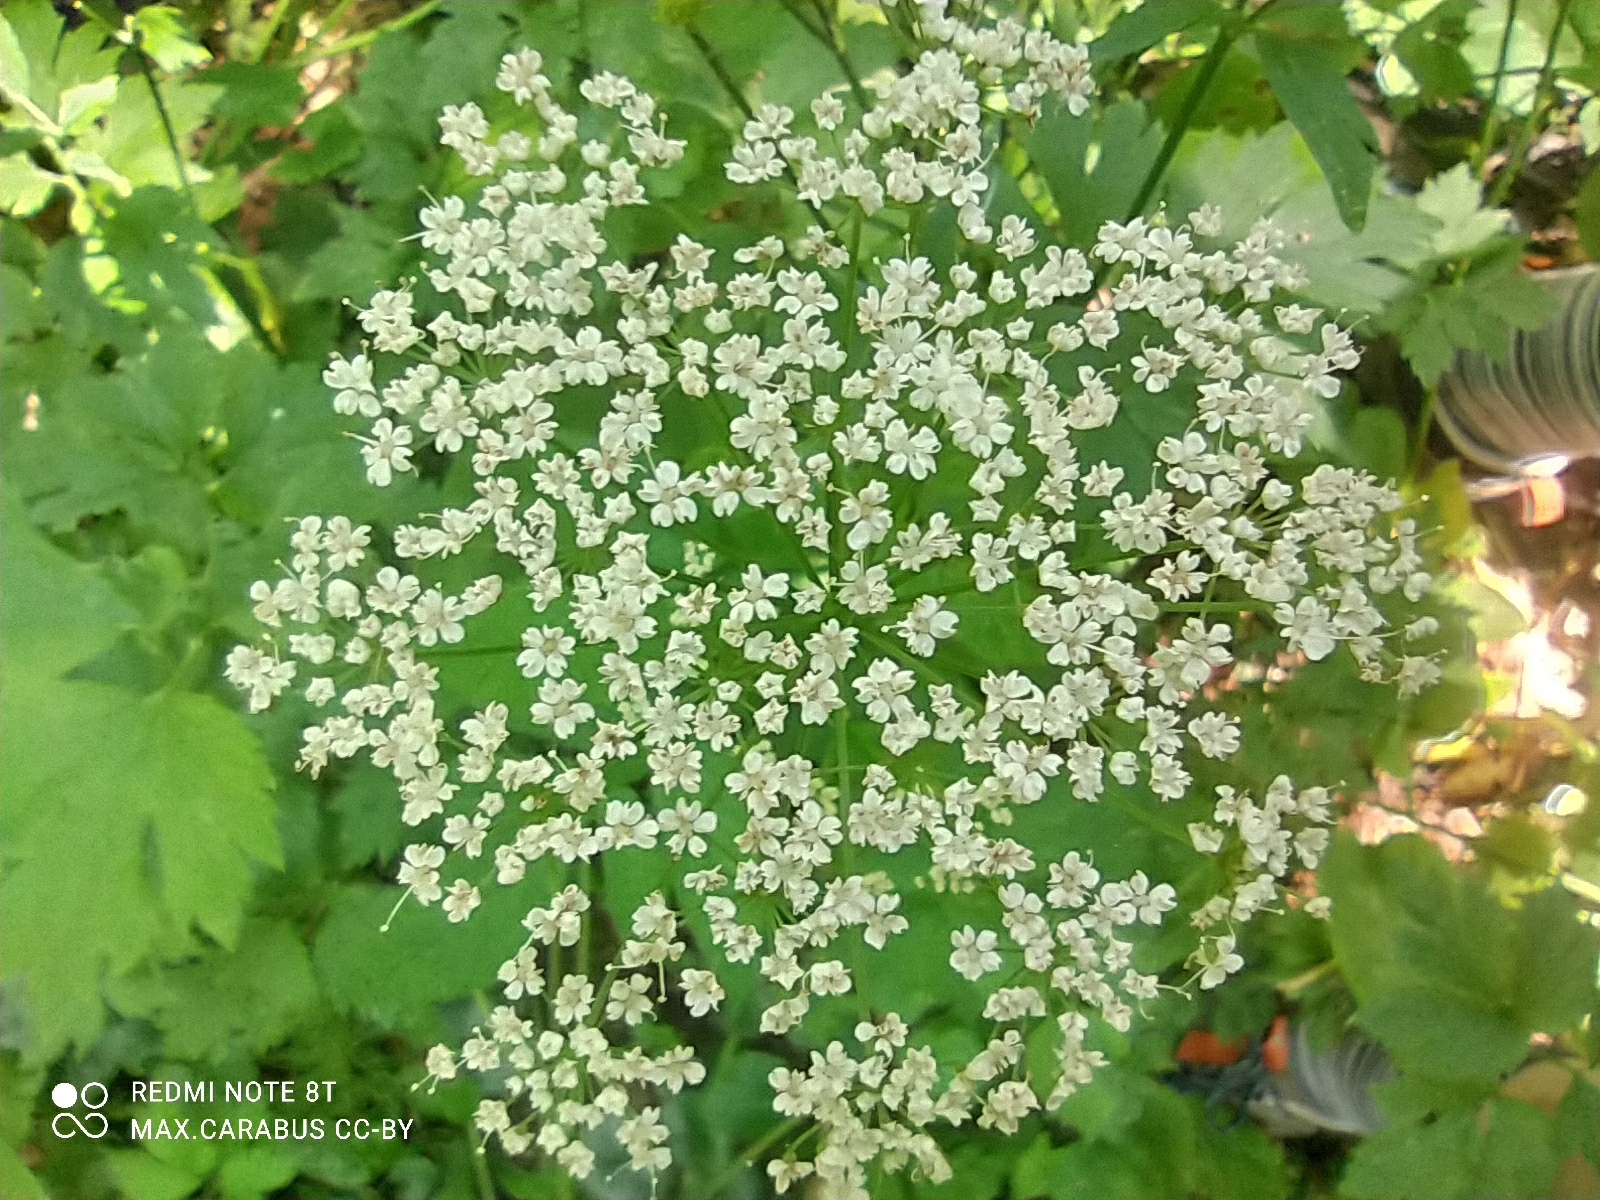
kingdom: Plantae
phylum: Tracheophyta
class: Magnoliopsida
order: Apiales
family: Apiaceae
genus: Aegopodium
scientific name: Aegopodium podagraria
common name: Ground-elder
